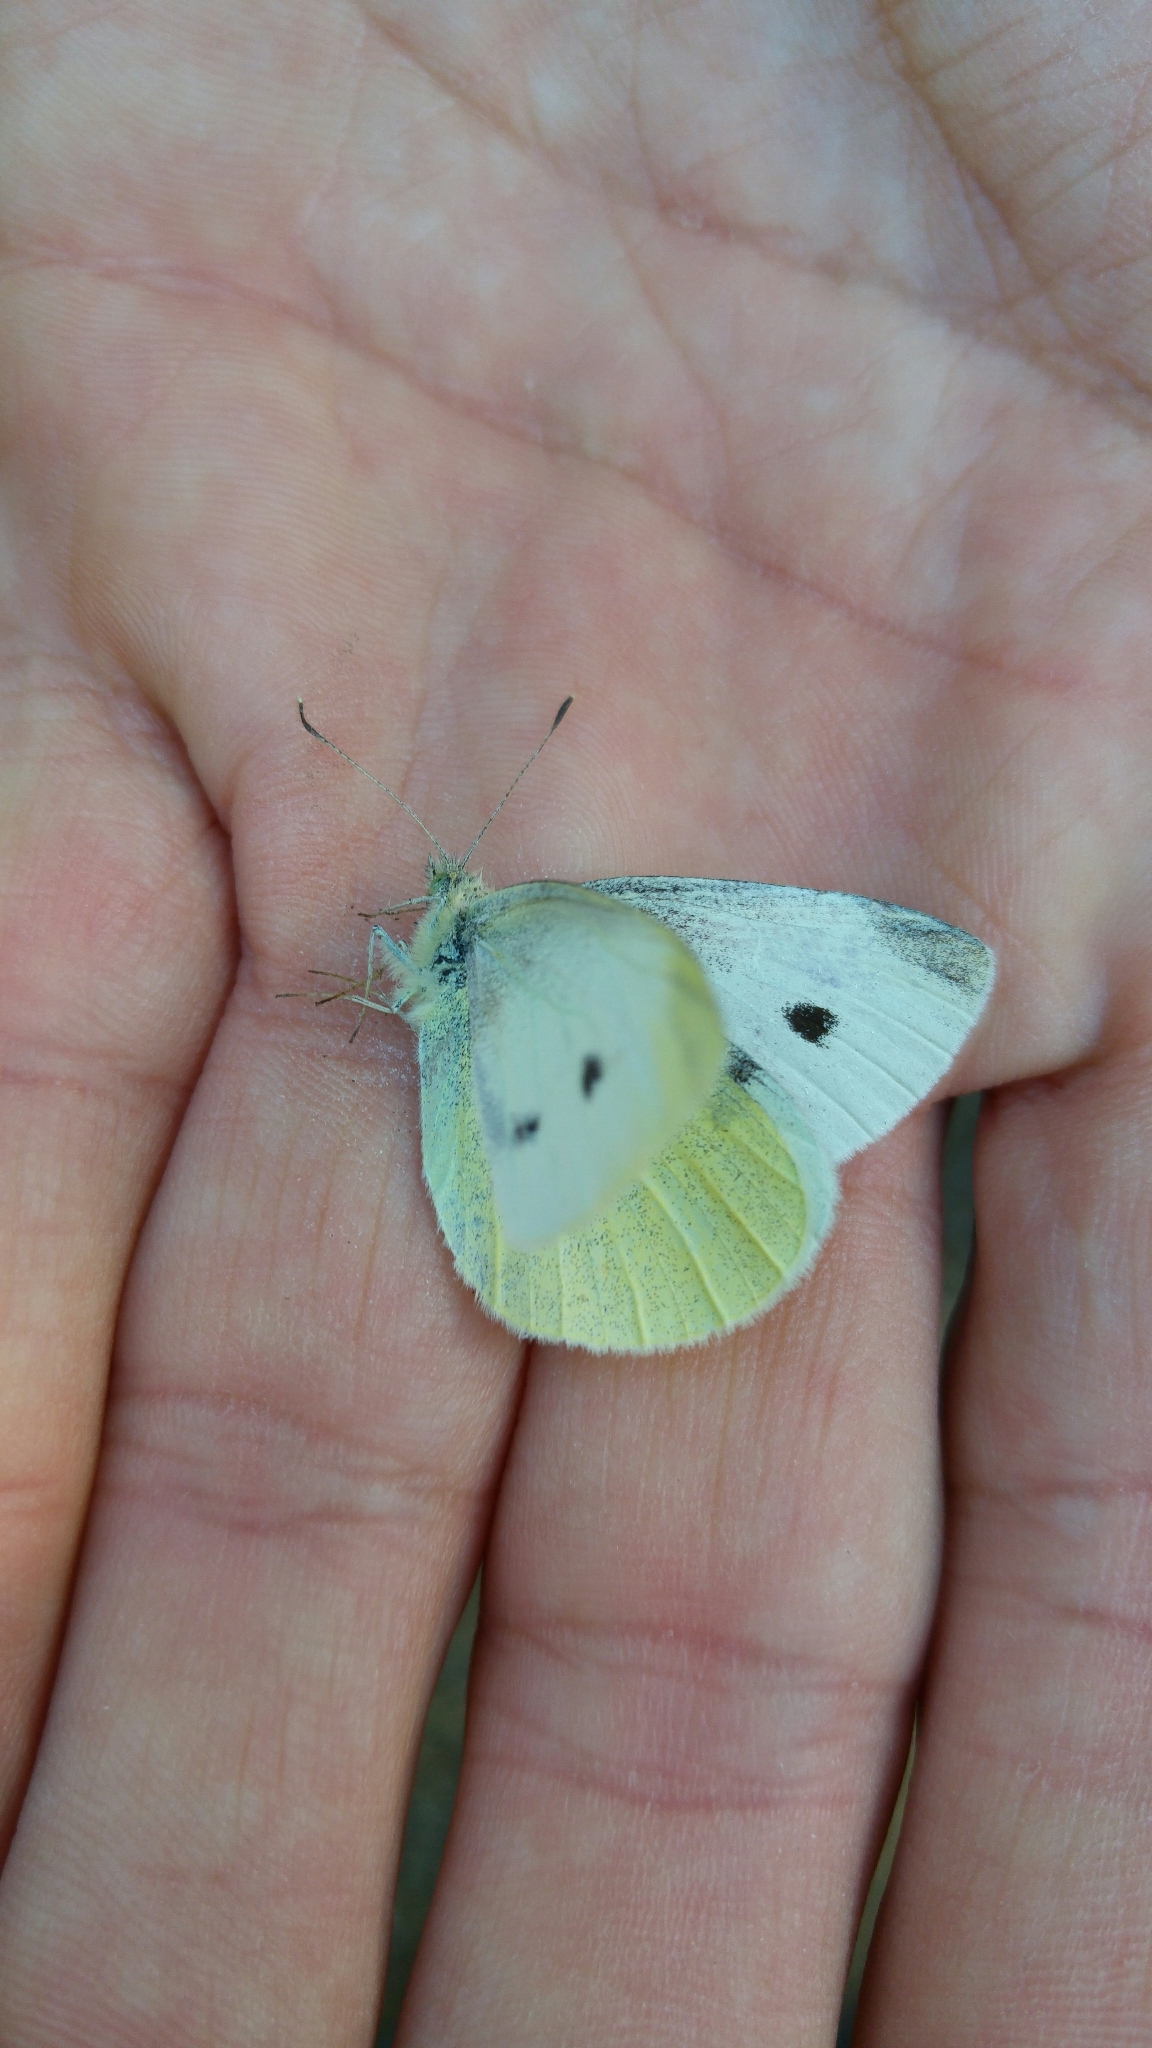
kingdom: Animalia
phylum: Arthropoda
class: Insecta
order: Lepidoptera
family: Pieridae
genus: Pieris
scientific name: Pieris rapae
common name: Small white
